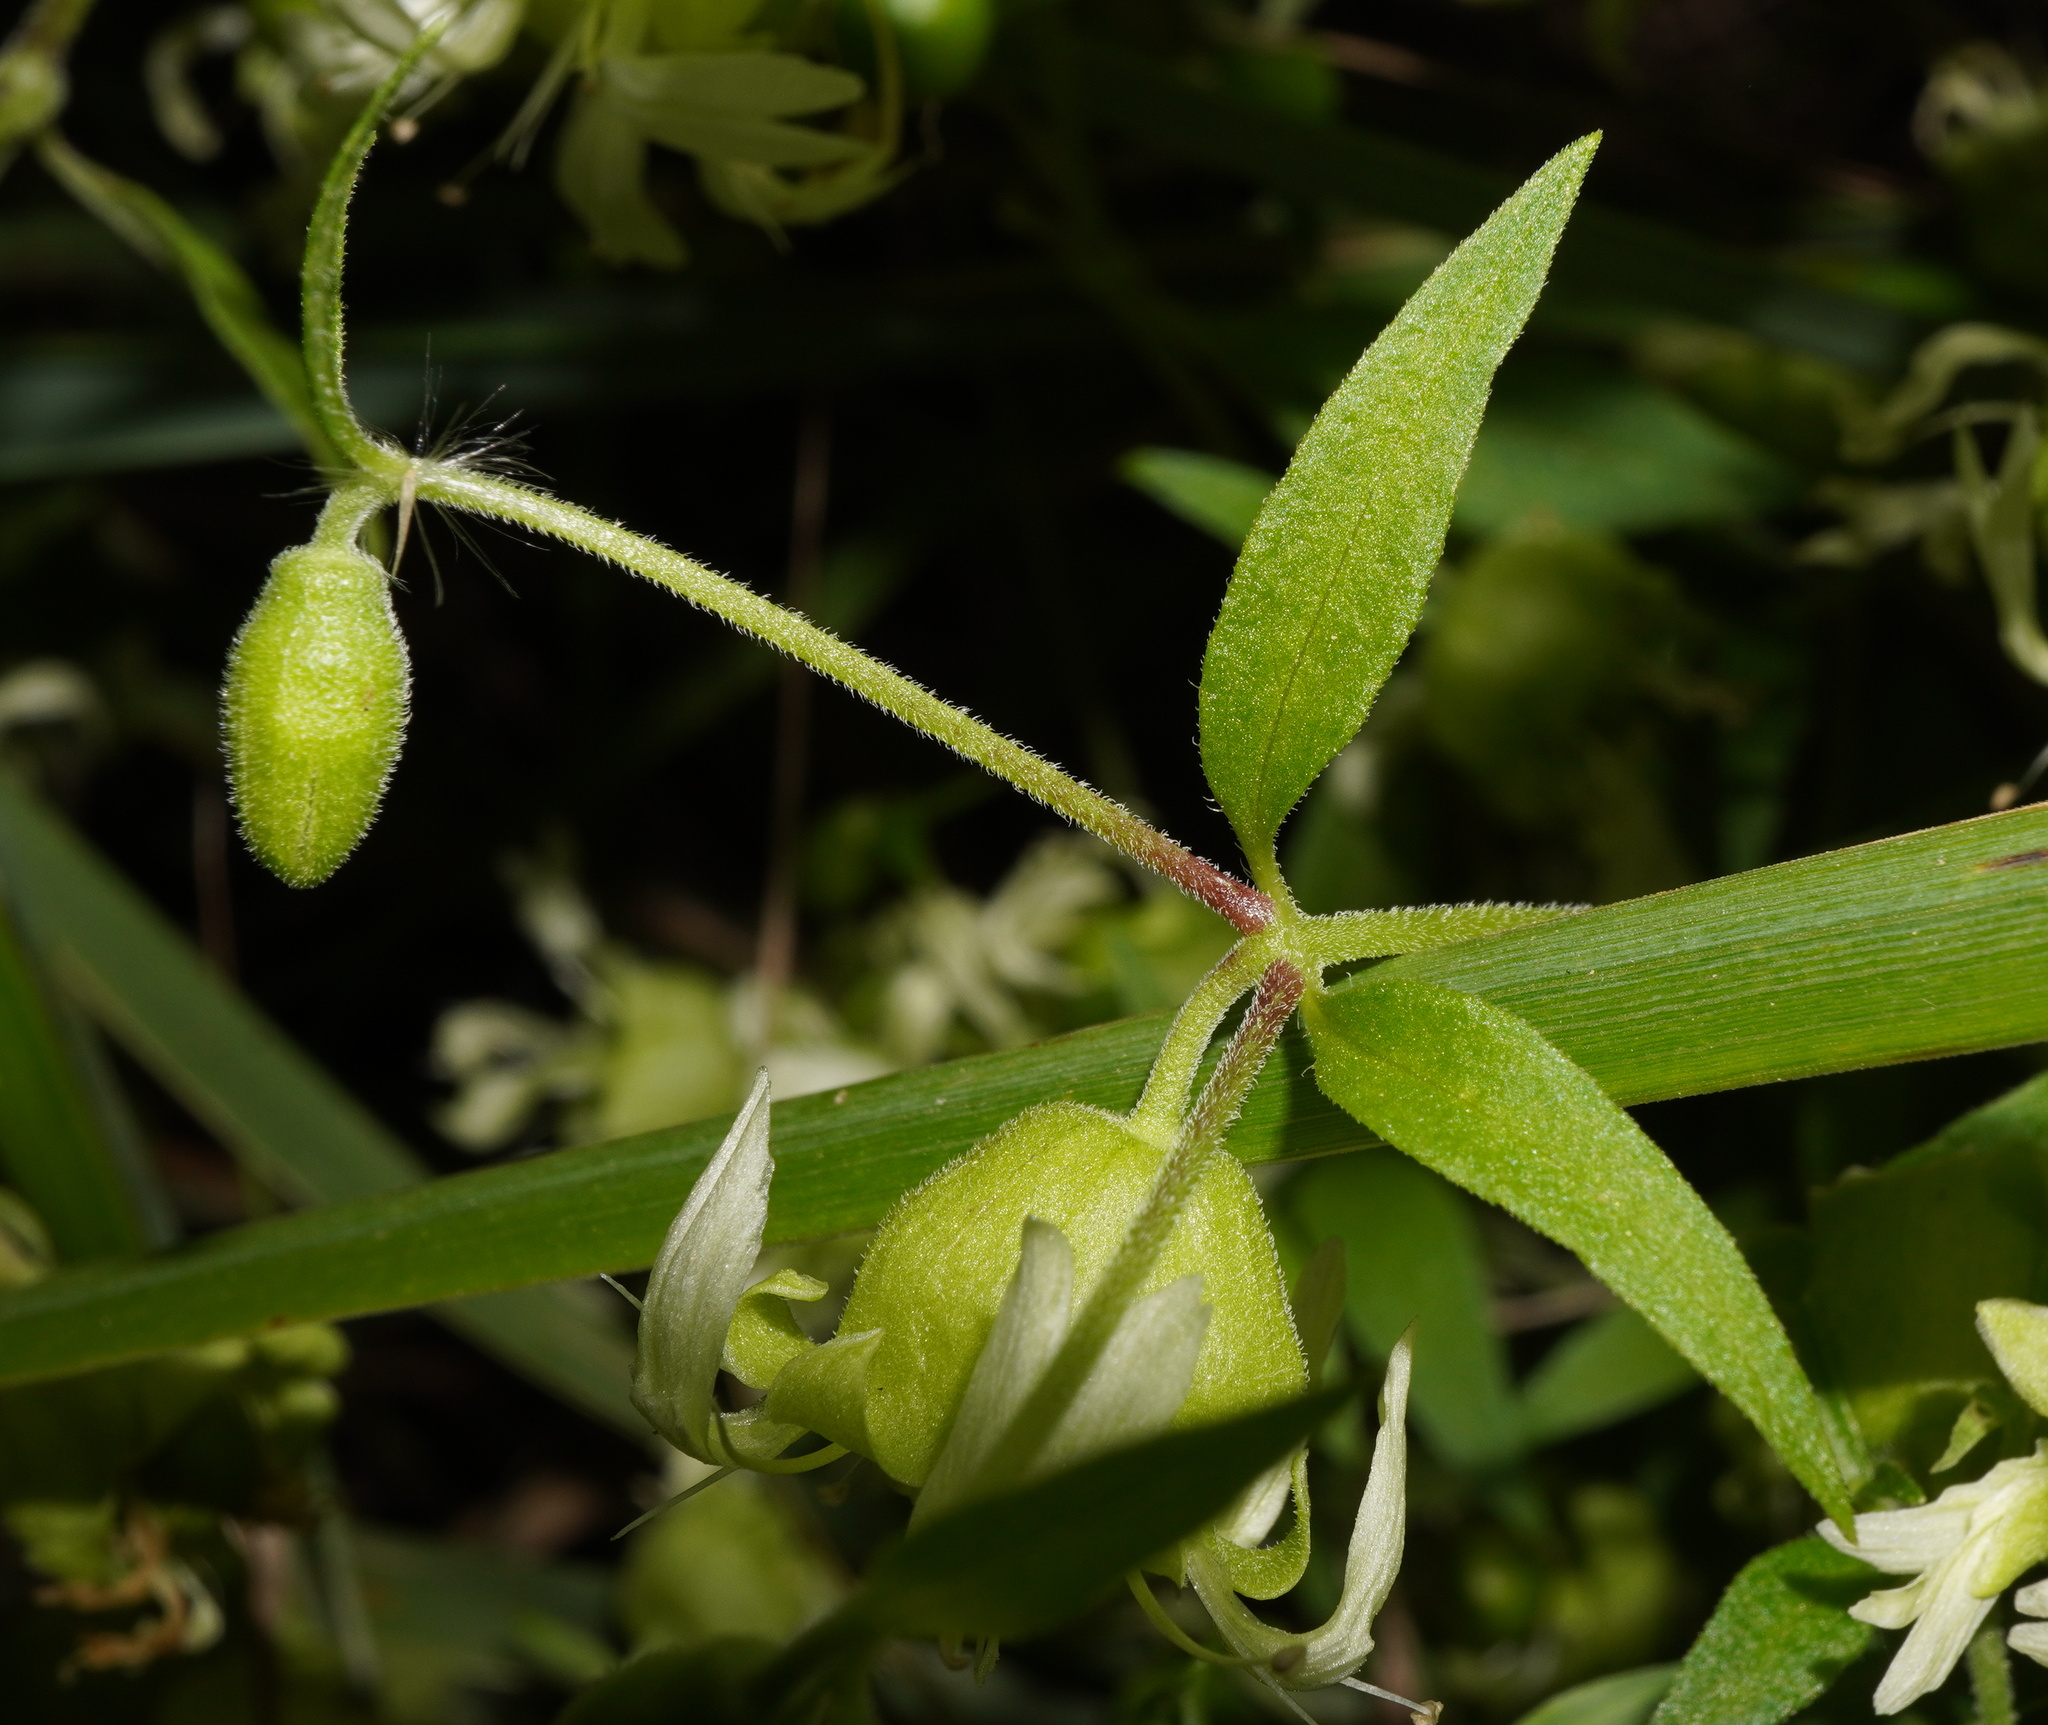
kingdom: Plantae
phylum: Tracheophyta
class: Magnoliopsida
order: Caryophyllales
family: Caryophyllaceae
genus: Silene
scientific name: Silene baccifera
